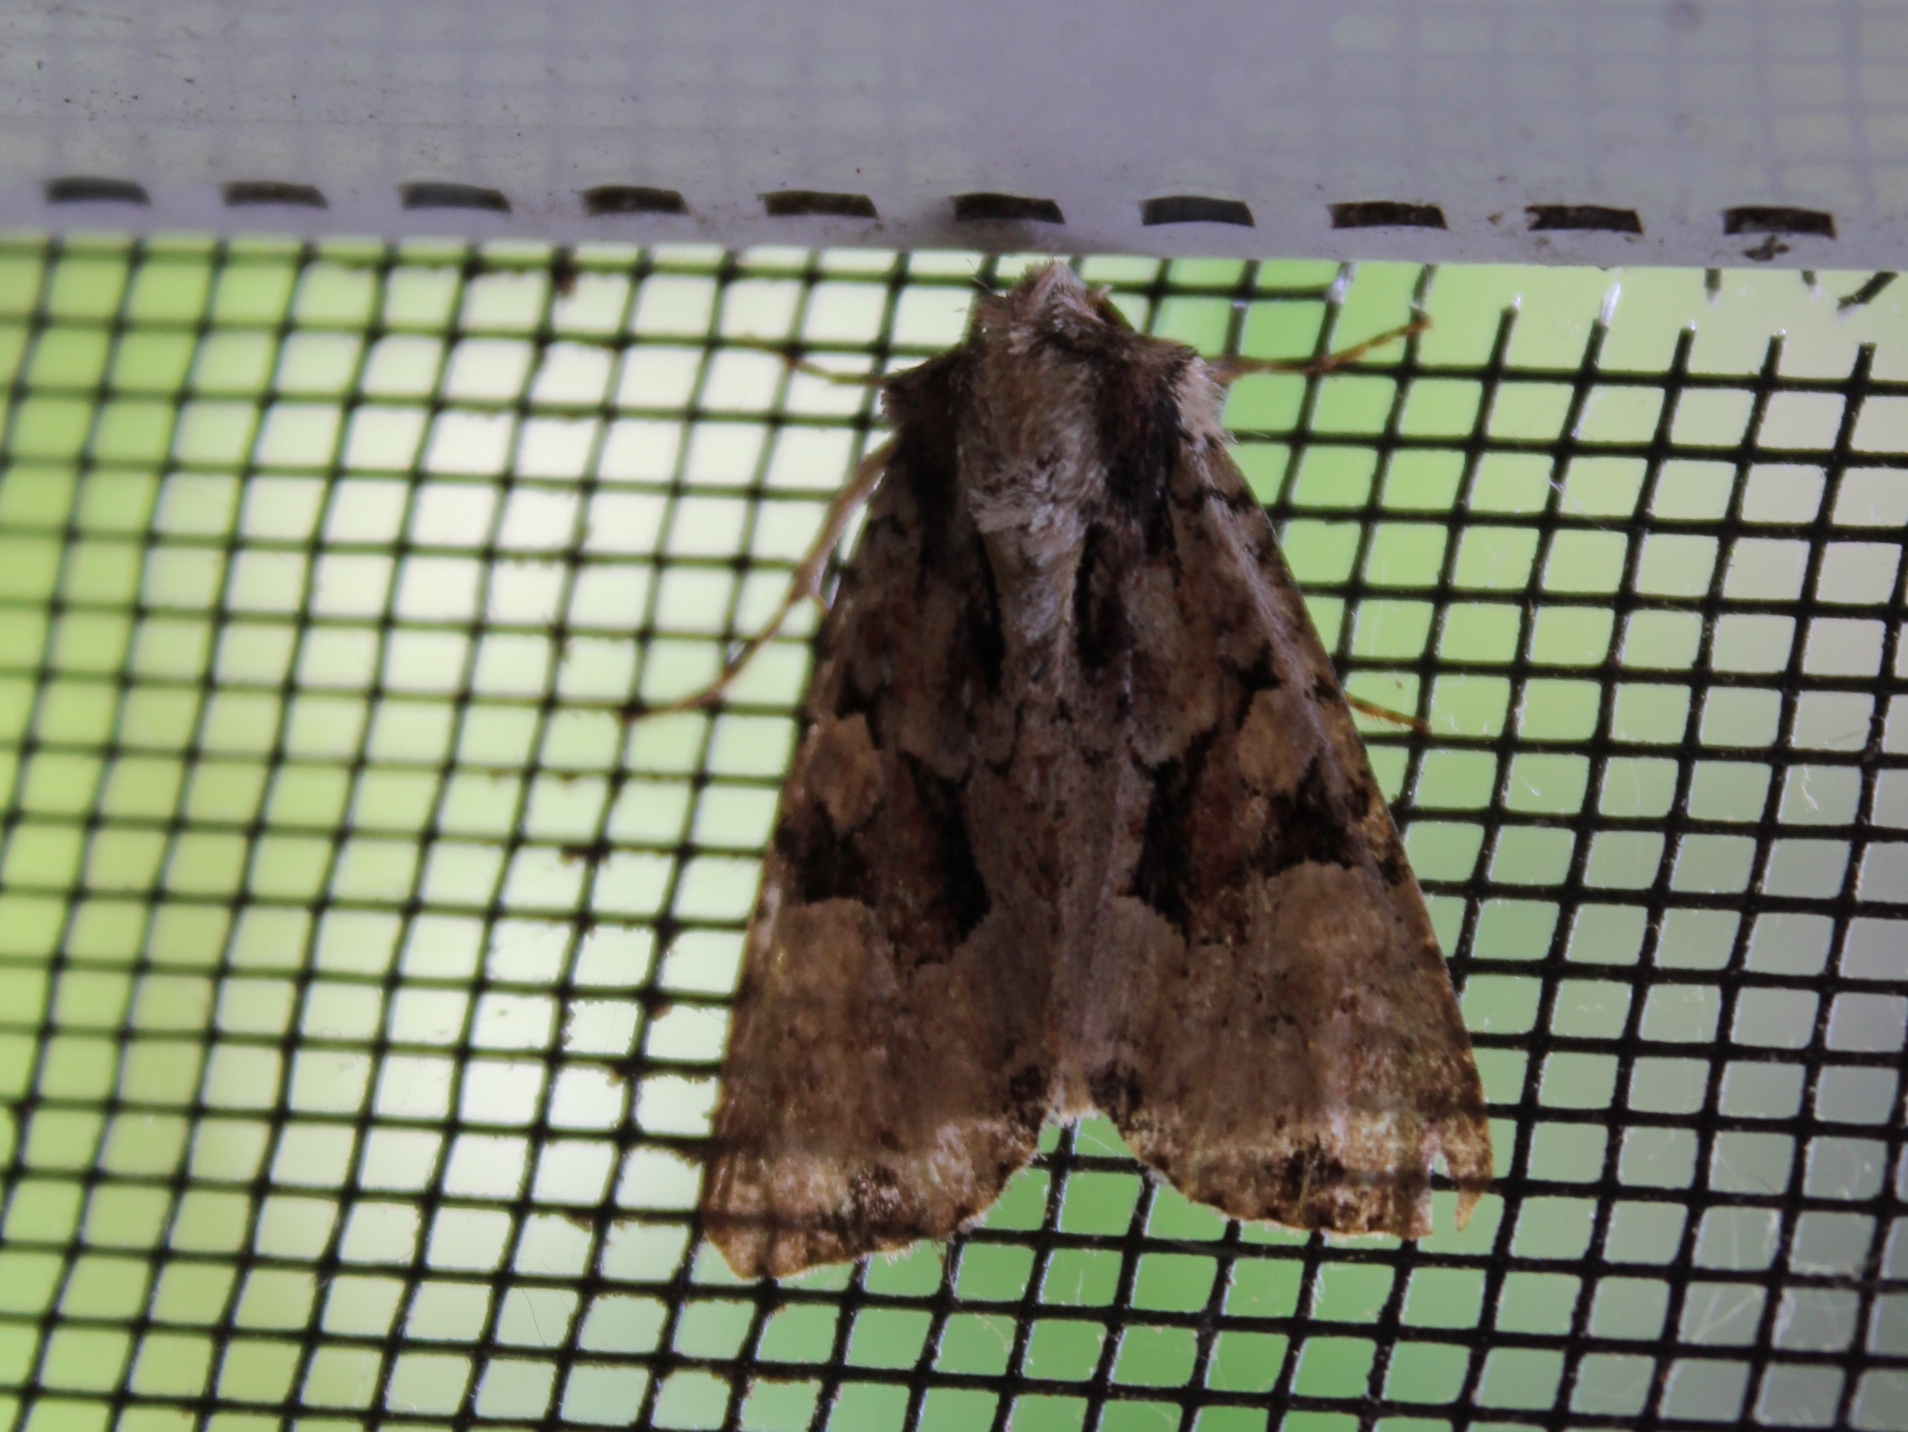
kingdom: Animalia
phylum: Arthropoda
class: Insecta
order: Lepidoptera
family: Noctuidae
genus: Oligia
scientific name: Oligia modica
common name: Black-banded brocade
